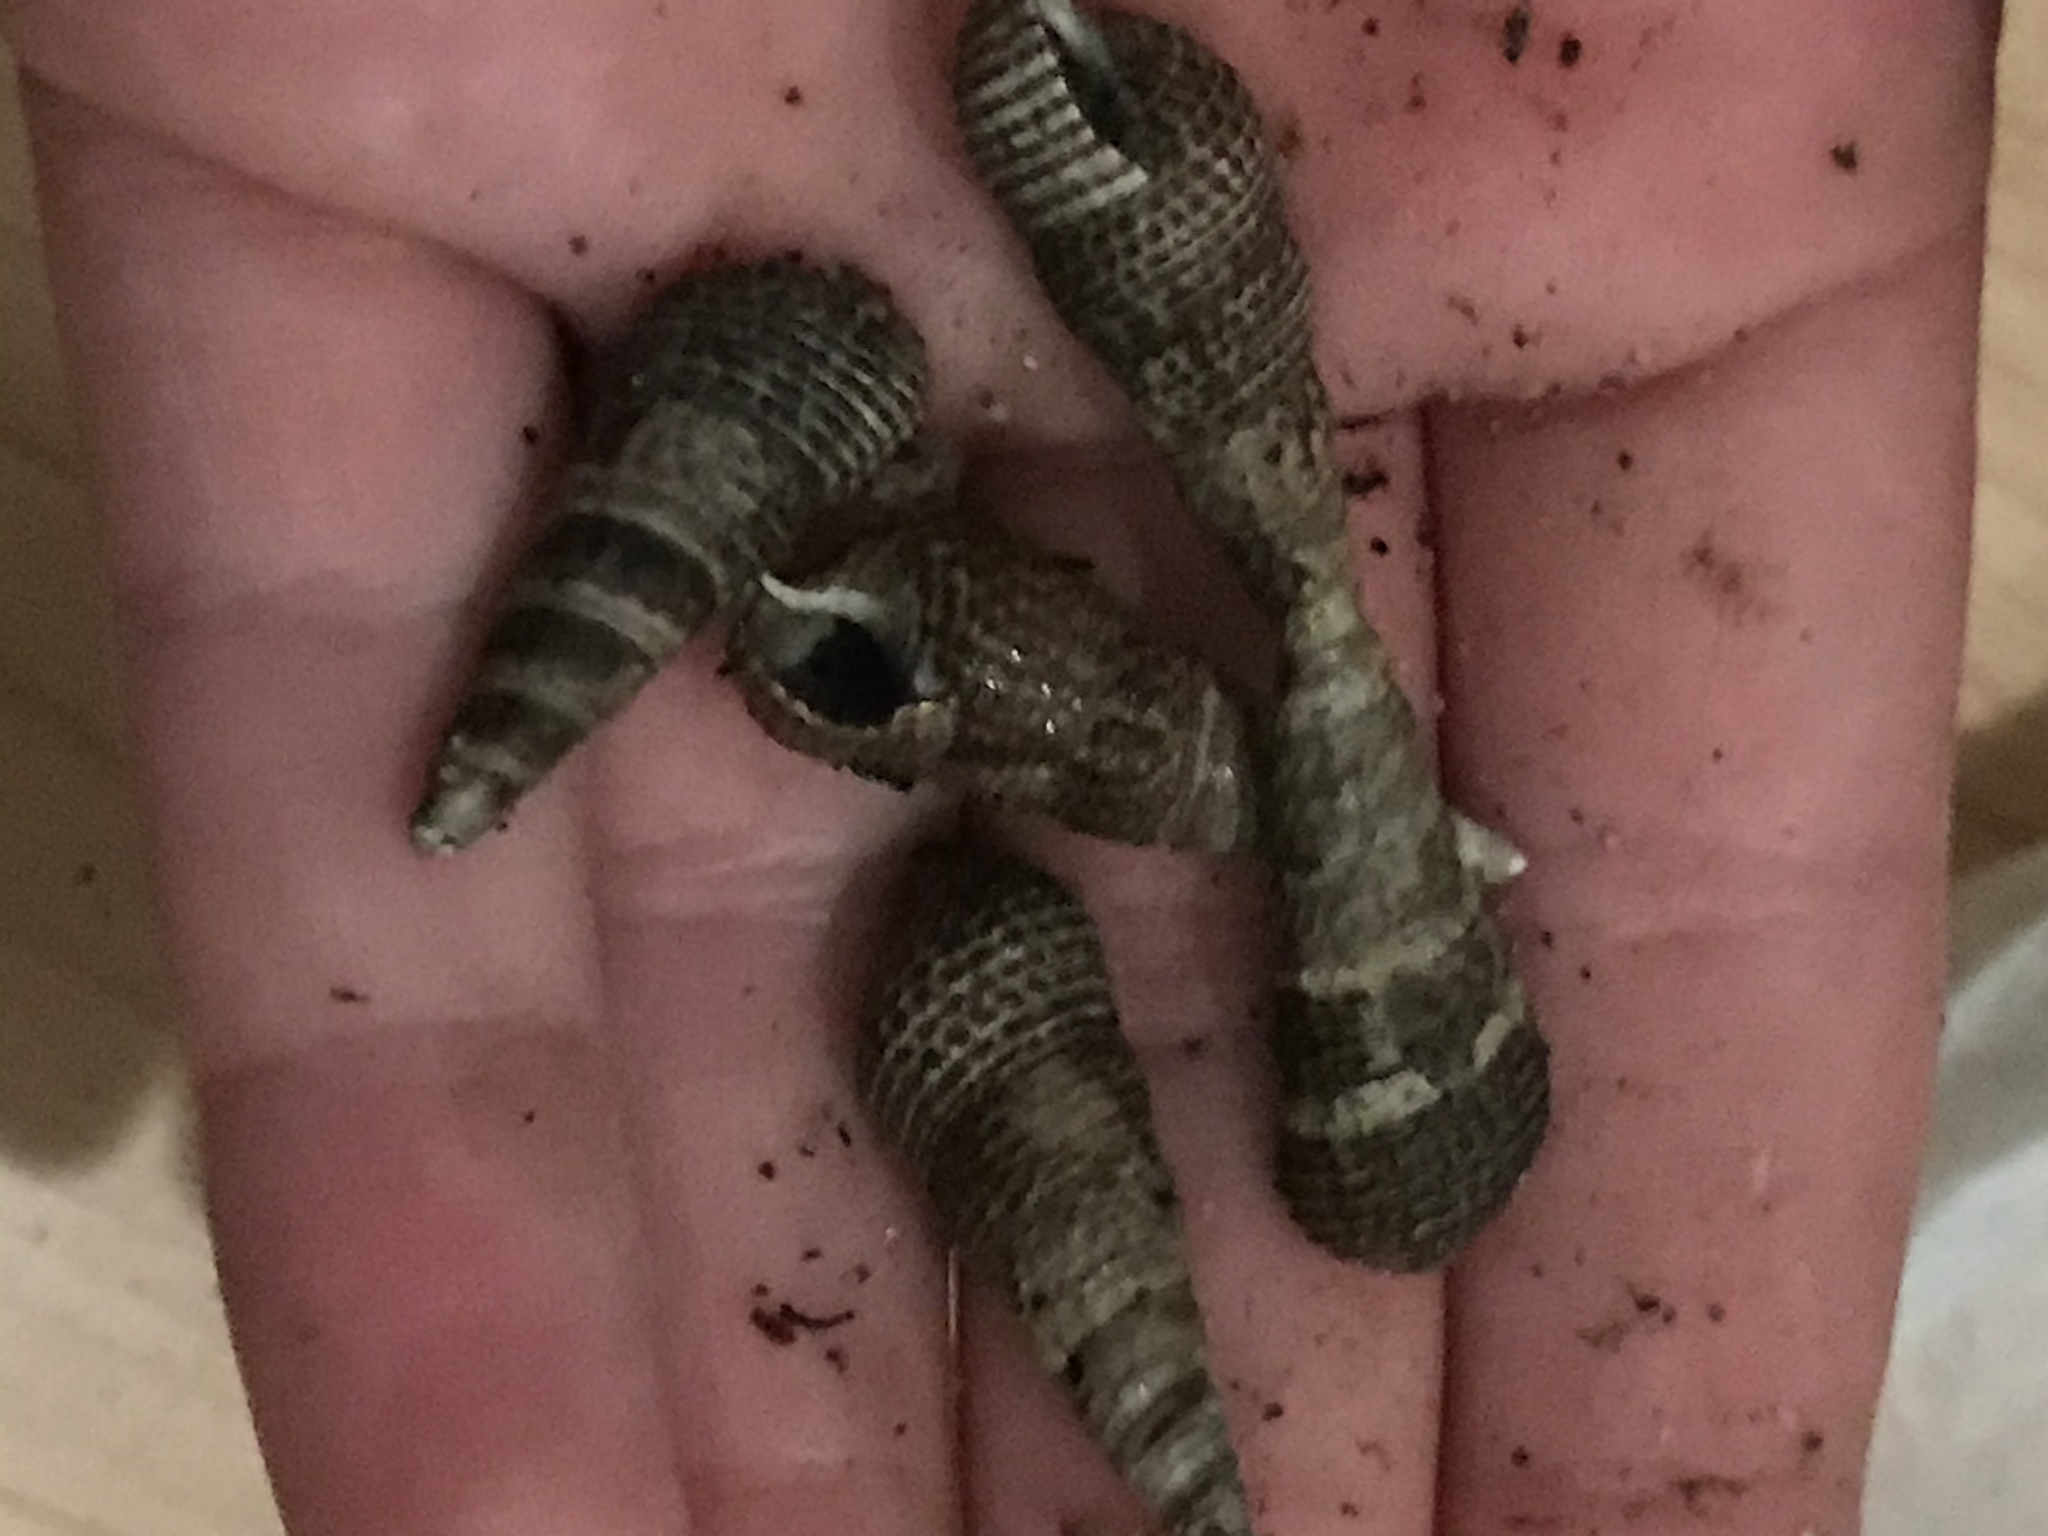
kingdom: Animalia
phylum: Mollusca
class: Gastropoda
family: Batillariidae
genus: Batillaria
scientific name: Batillaria attramentaria
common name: Japanese false cerith
